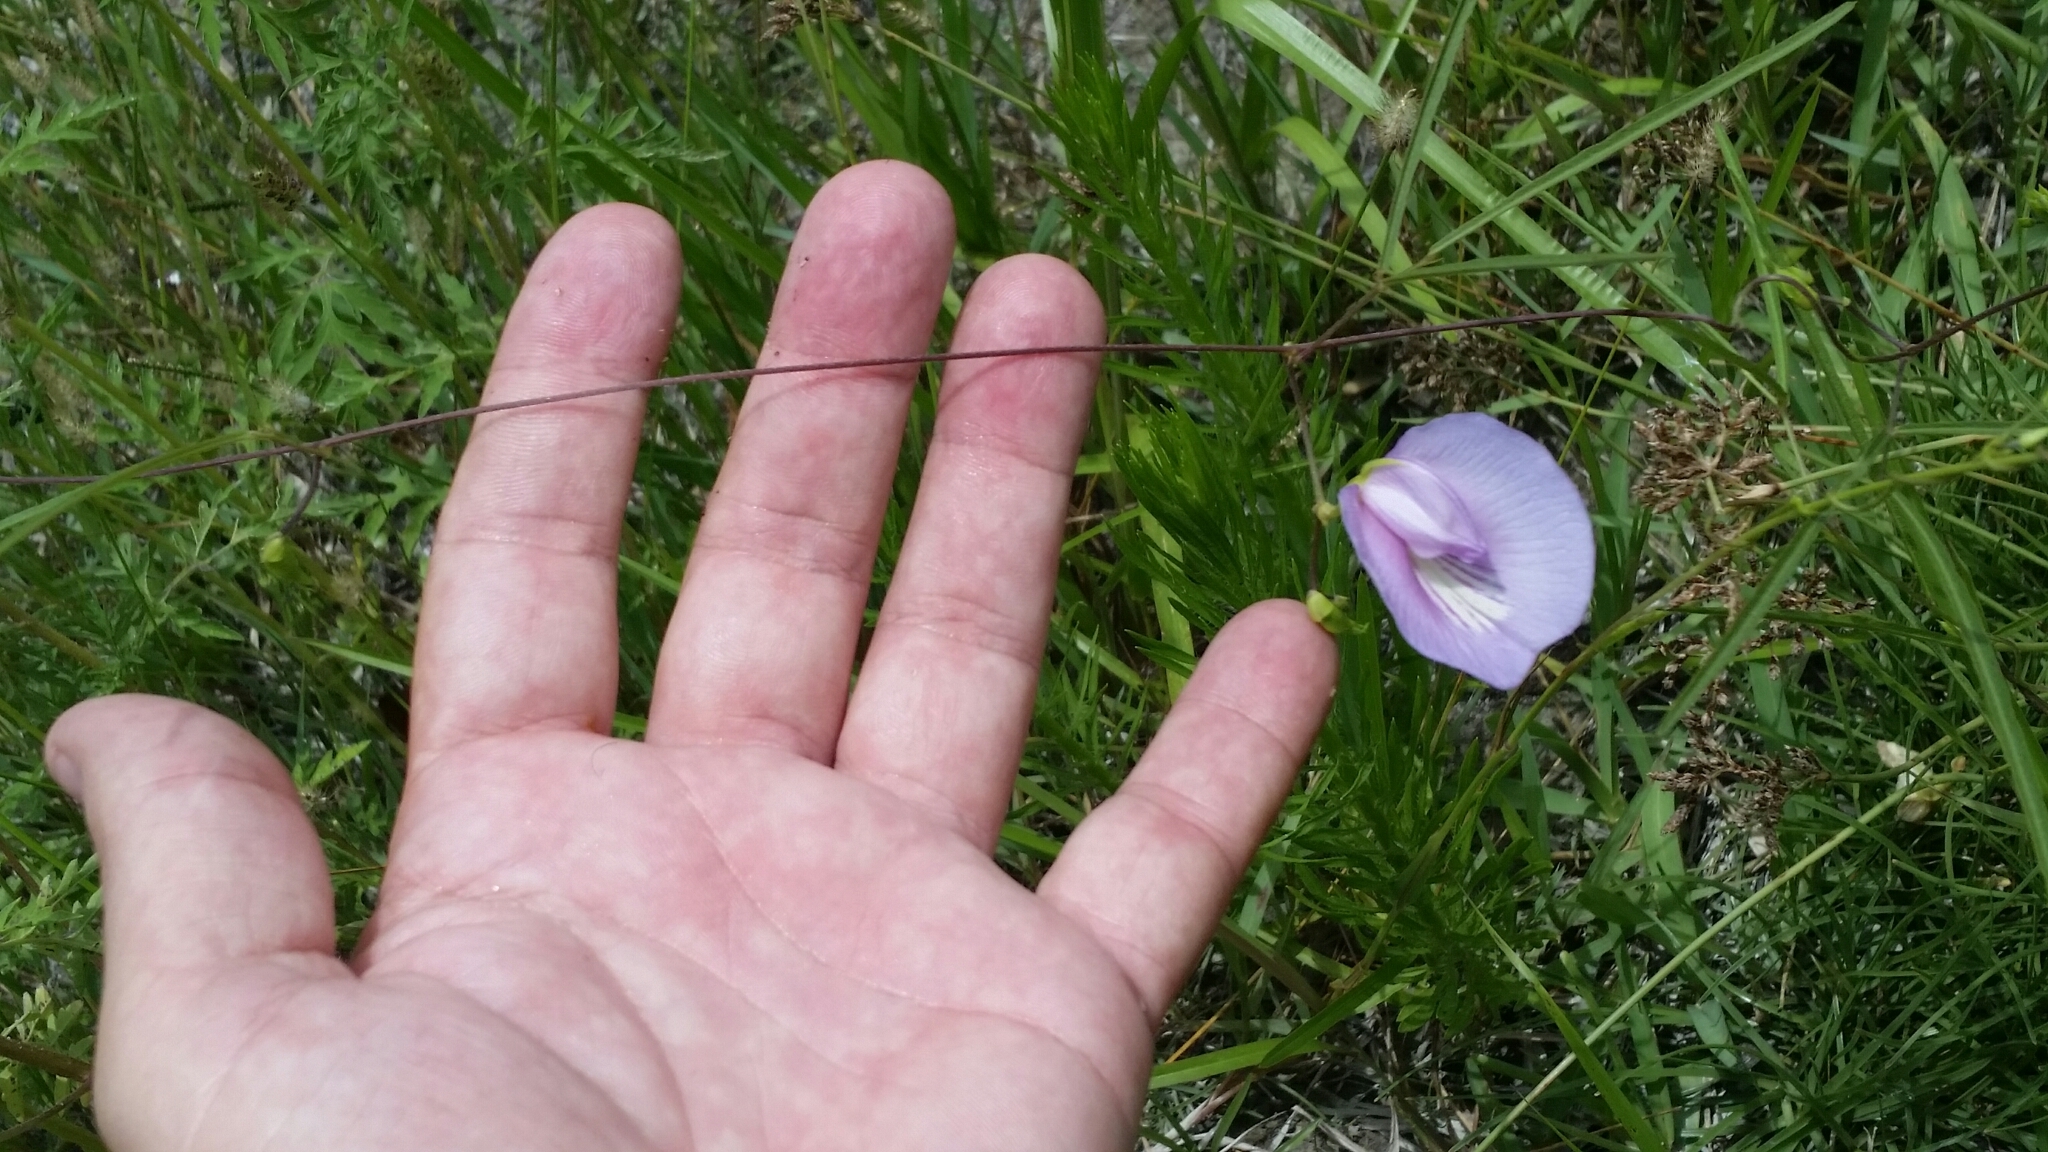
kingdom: Plantae
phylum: Tracheophyta
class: Magnoliopsida
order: Fabales
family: Fabaceae
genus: Centrosema
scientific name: Centrosema virginianum
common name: Butterfly-pea
